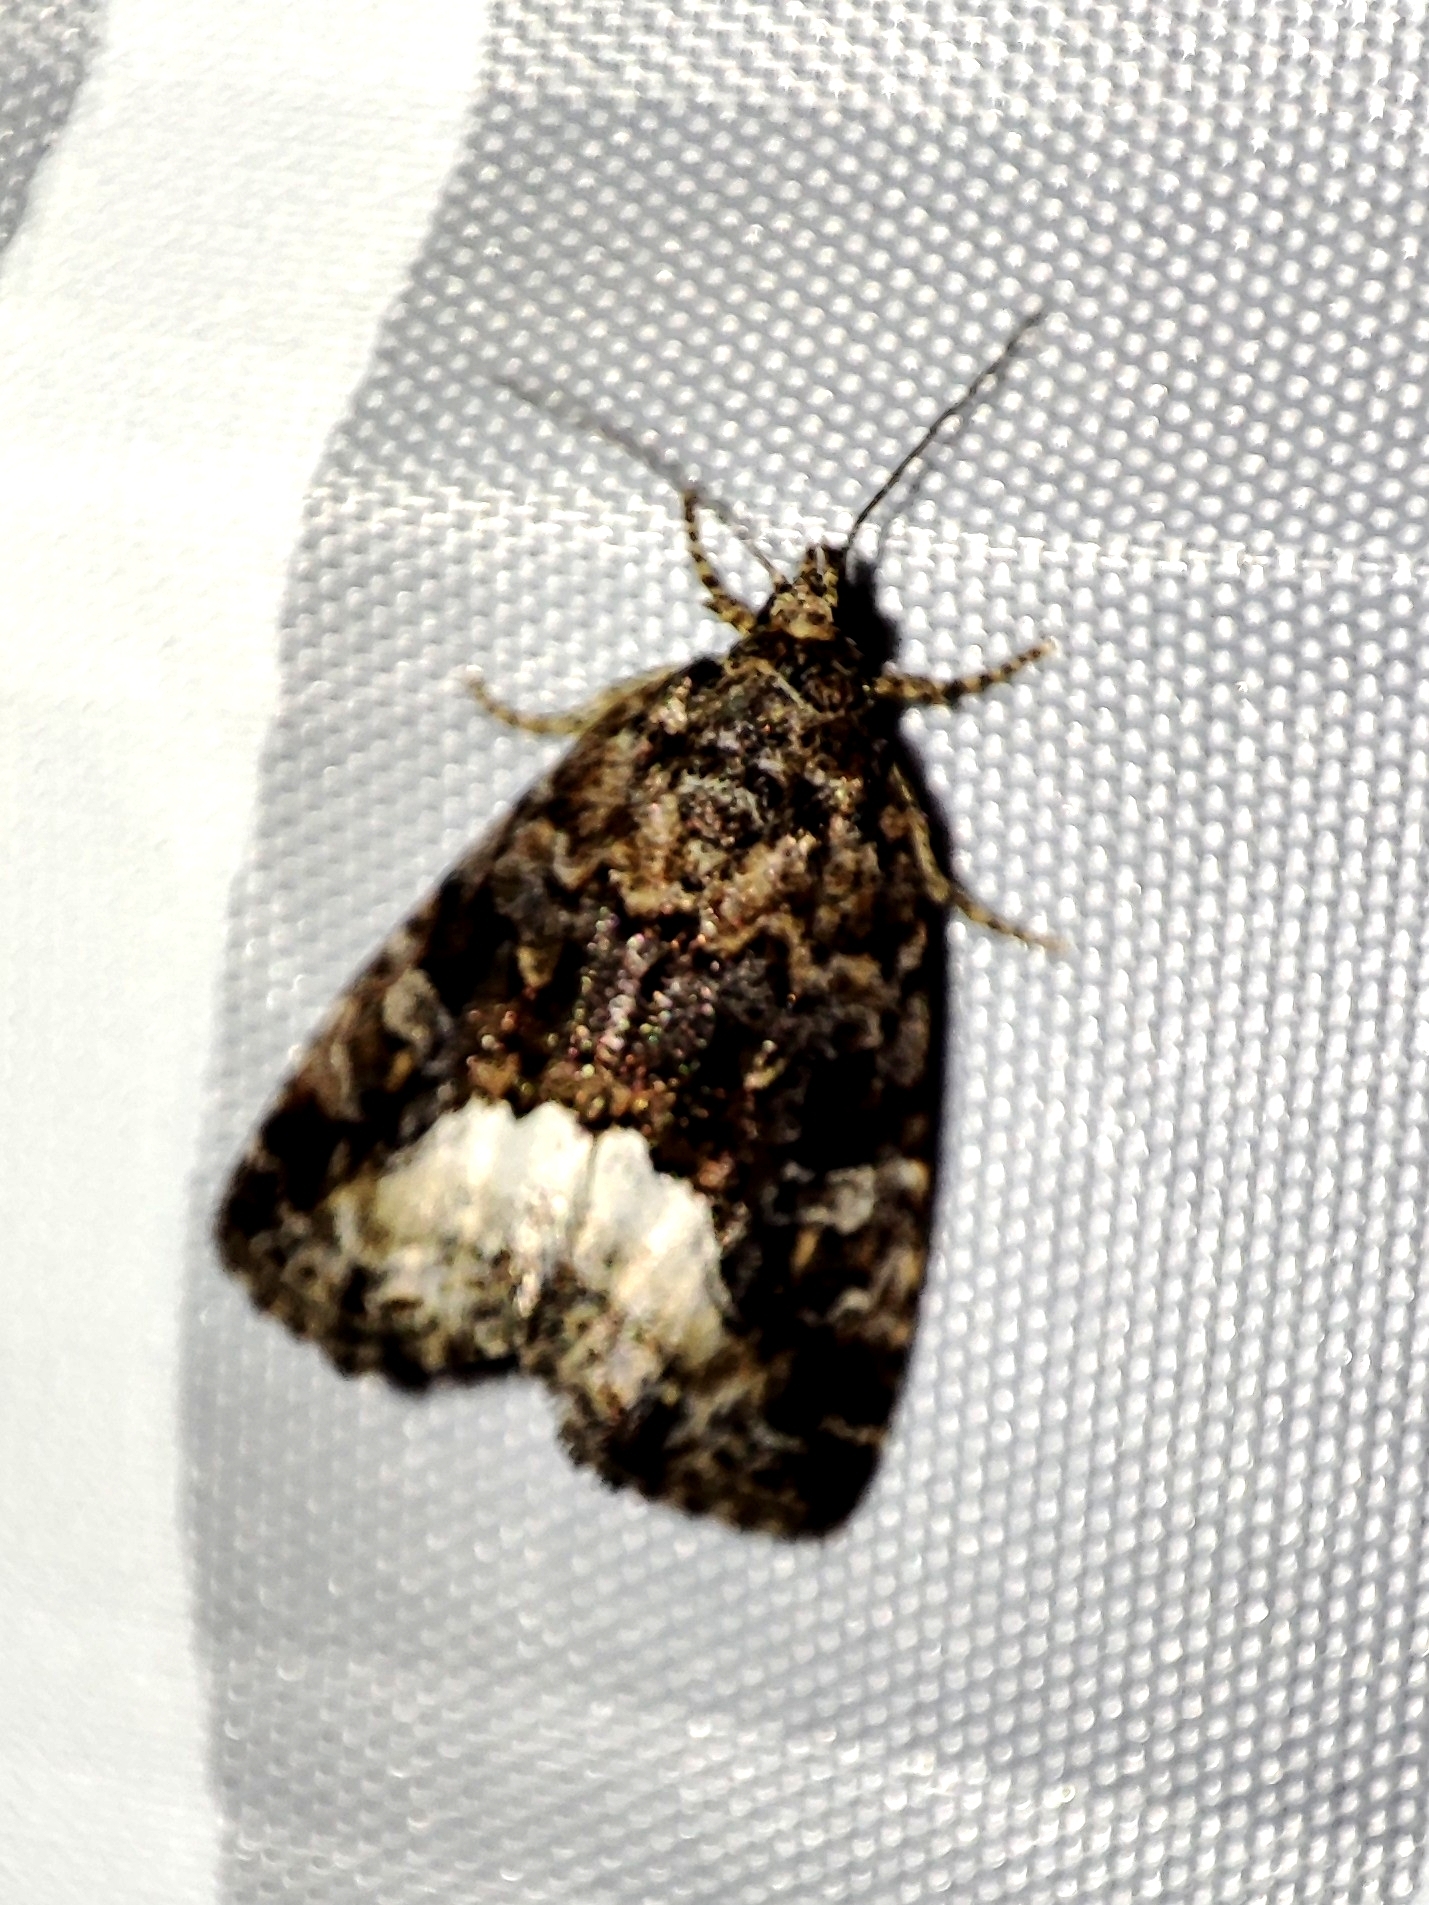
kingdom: Animalia
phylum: Arthropoda
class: Insecta
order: Lepidoptera
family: Noctuidae
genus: Deltote
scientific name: Deltote pygarga
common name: Marbled white spot
